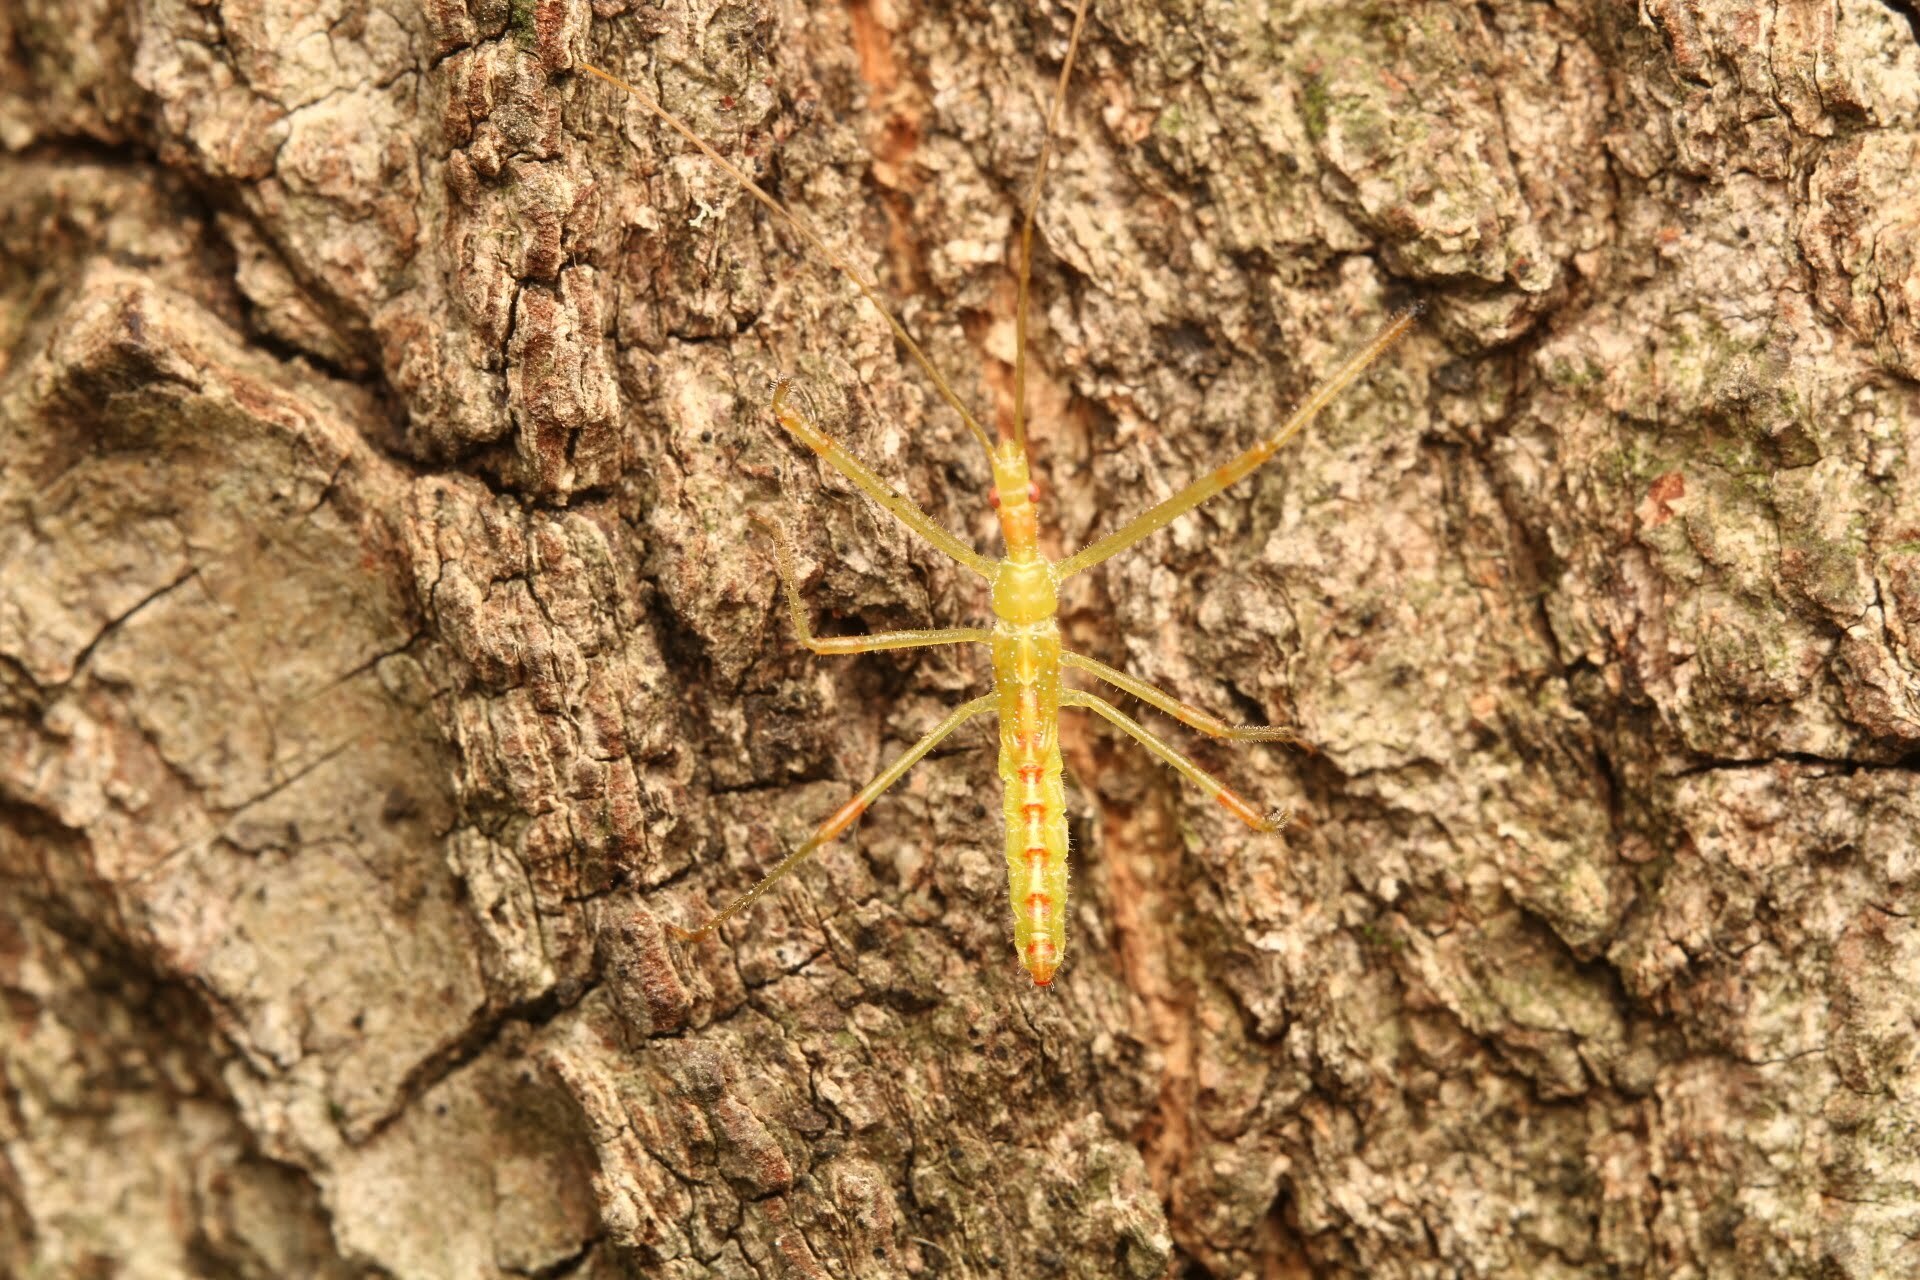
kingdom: Animalia
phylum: Arthropoda
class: Insecta
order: Hemiptera
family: Reduviidae
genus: Zelus
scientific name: Zelus luridus
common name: Pale green assassin bug
